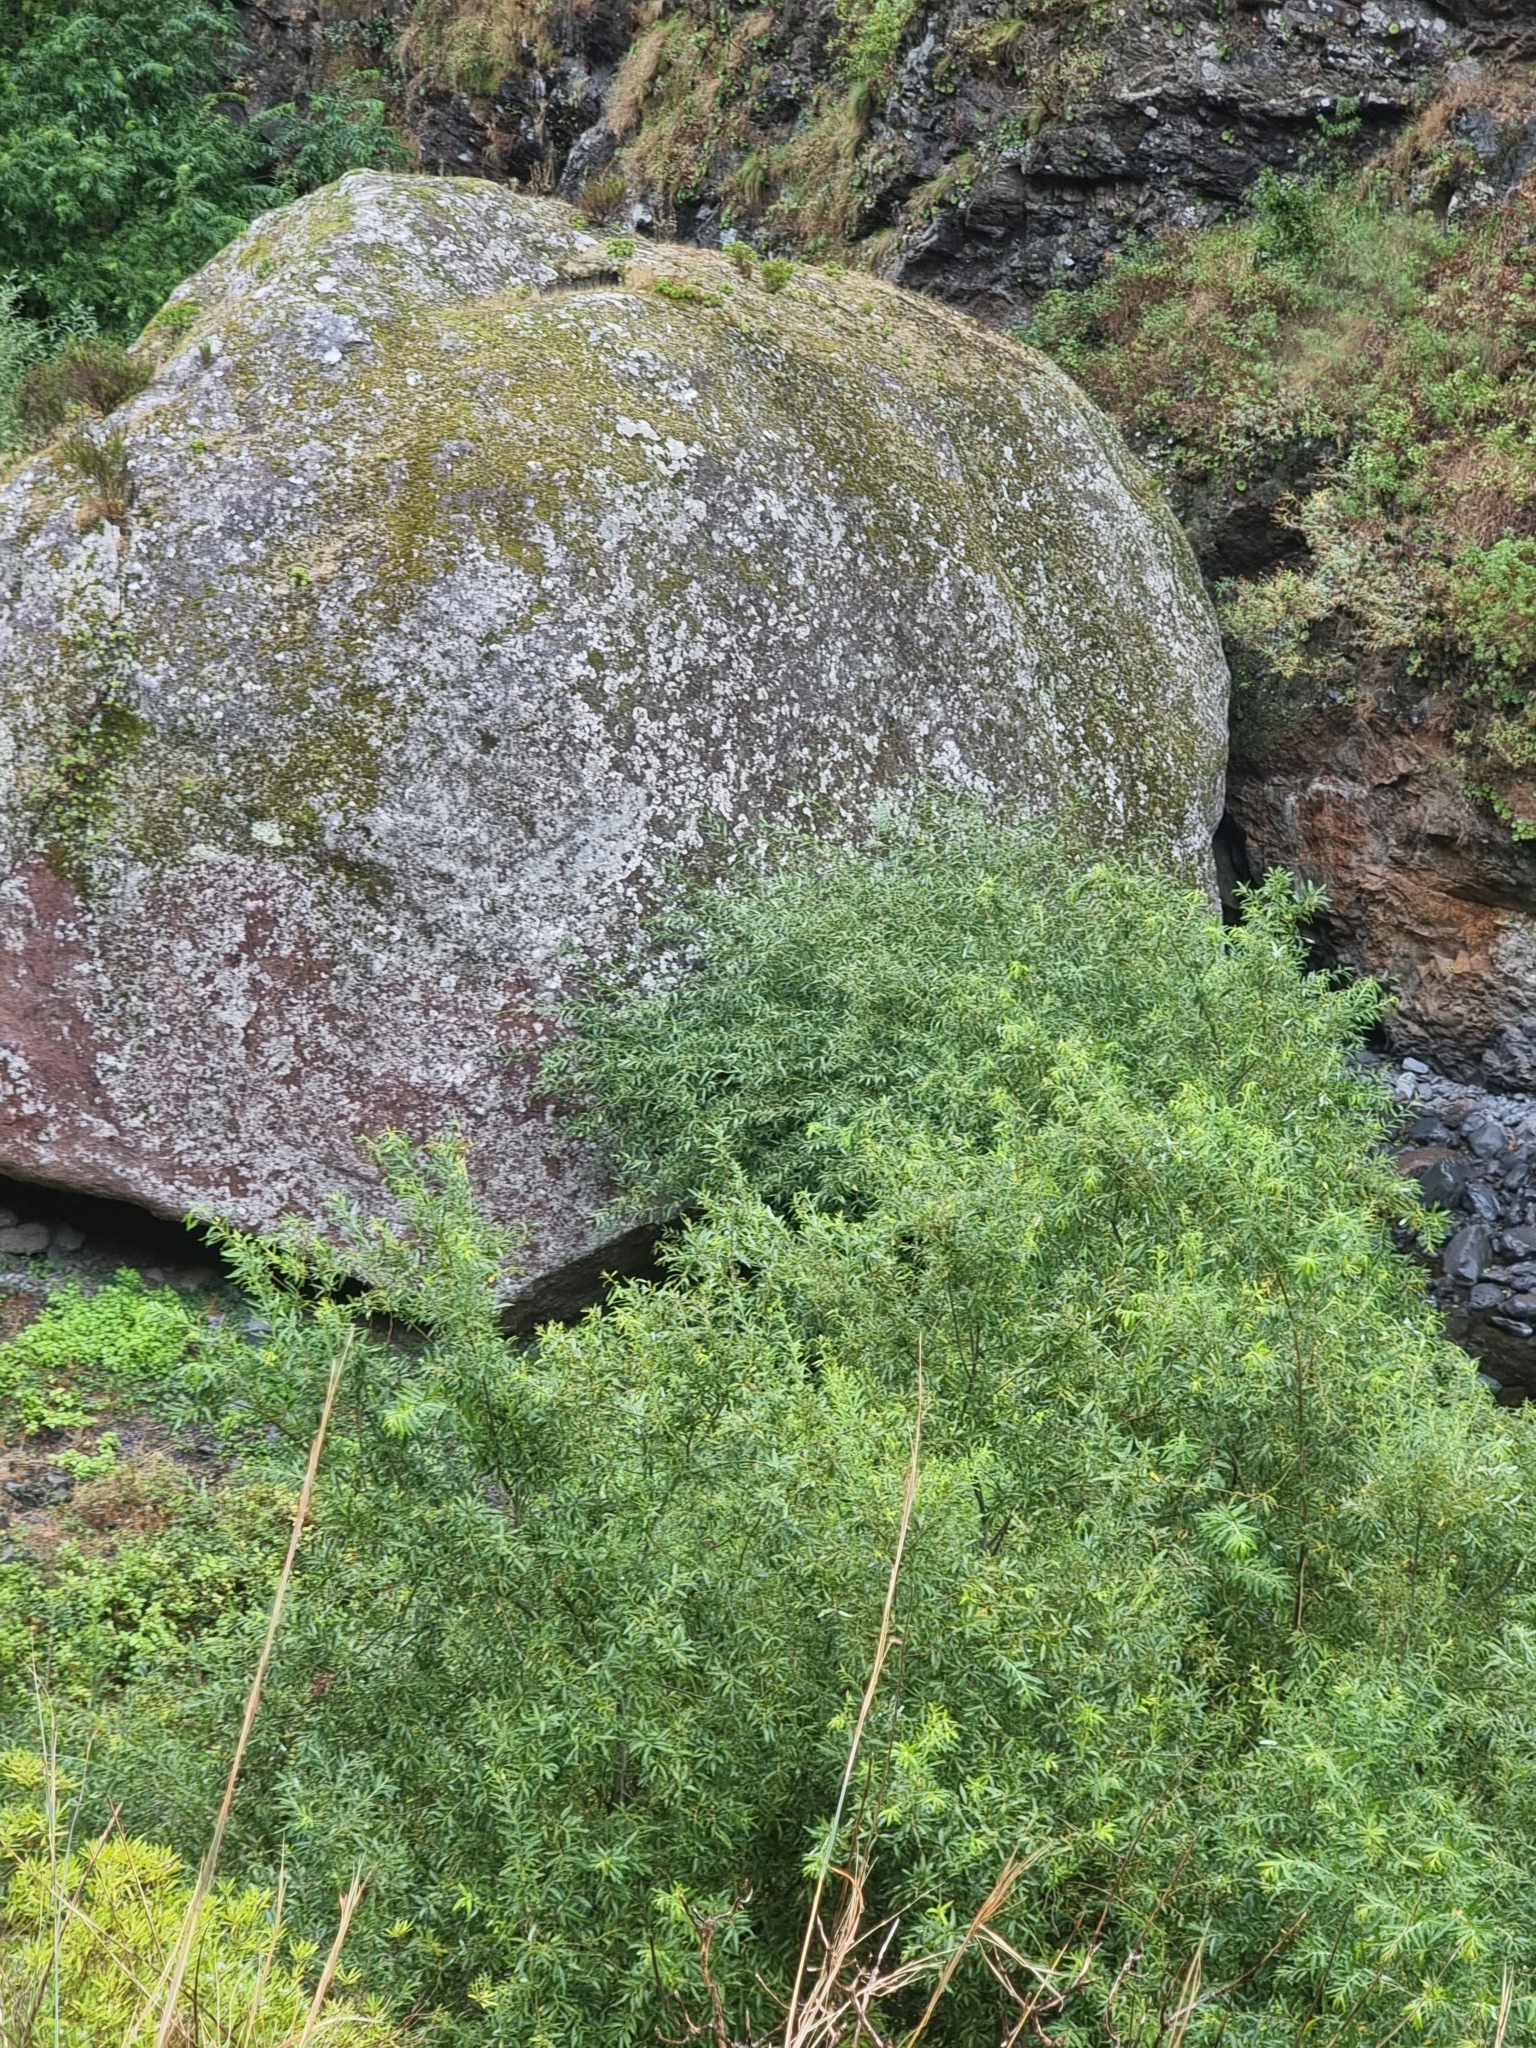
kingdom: Plantae
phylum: Tracheophyta
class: Magnoliopsida
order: Malpighiales
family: Salicaceae
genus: Salix
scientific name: Salix canariensis
